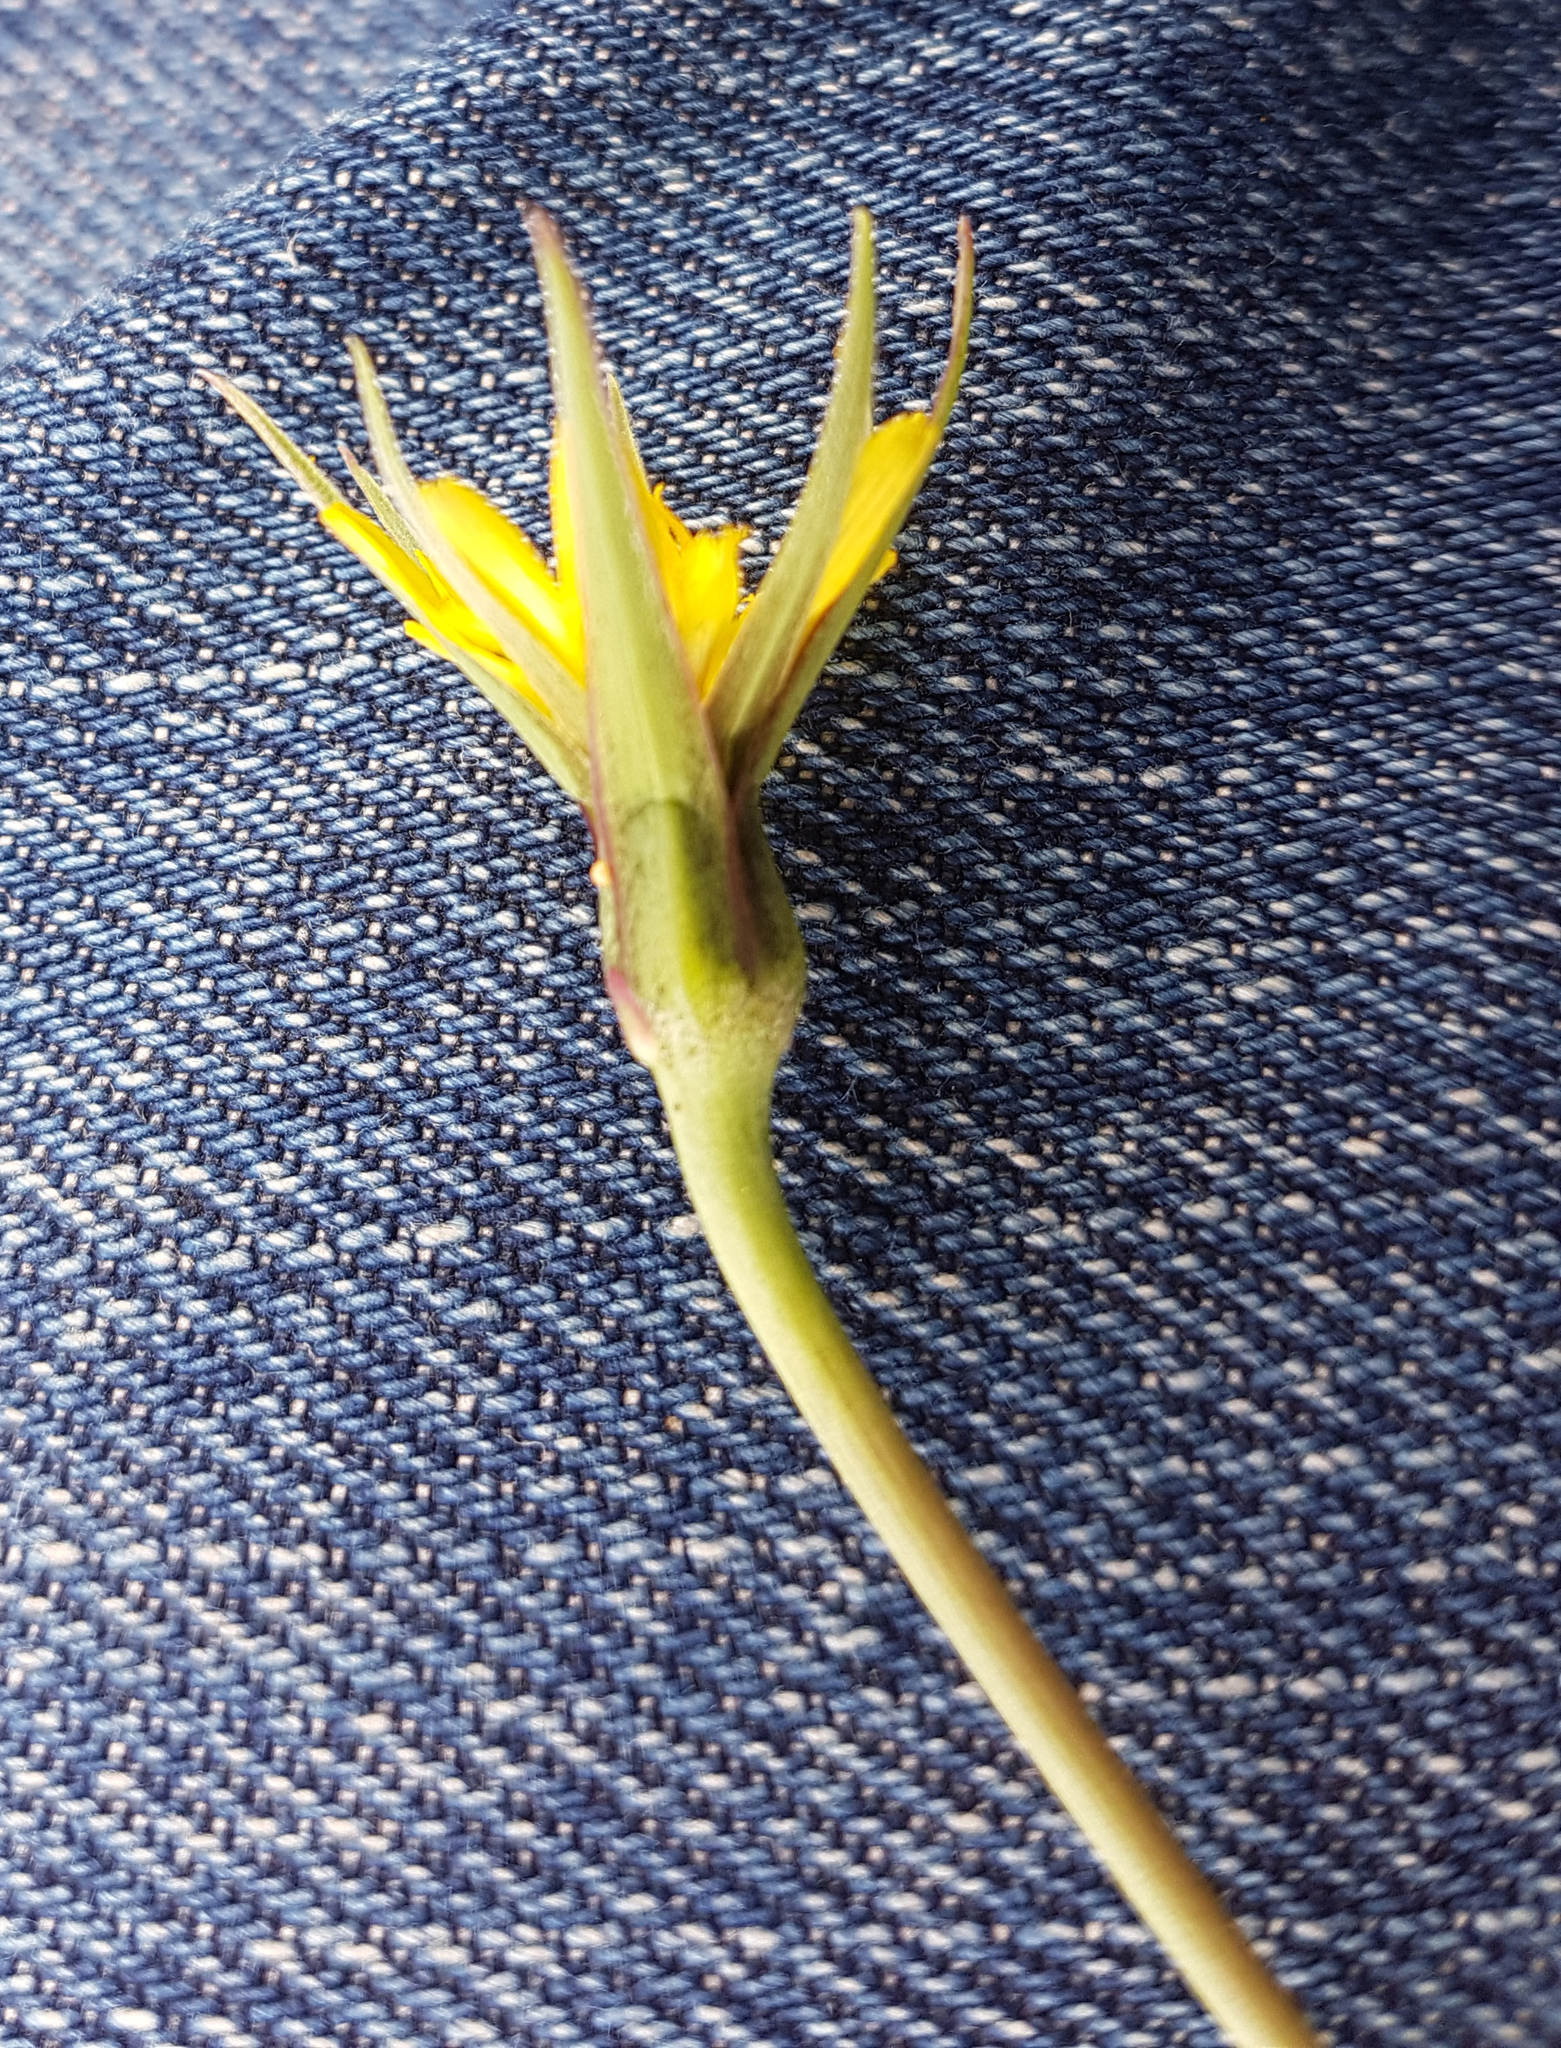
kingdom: Plantae
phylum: Tracheophyta
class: Magnoliopsida
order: Asterales
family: Asteraceae
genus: Tragopogon
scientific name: Tragopogon pratensis
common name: Goat's-beard
